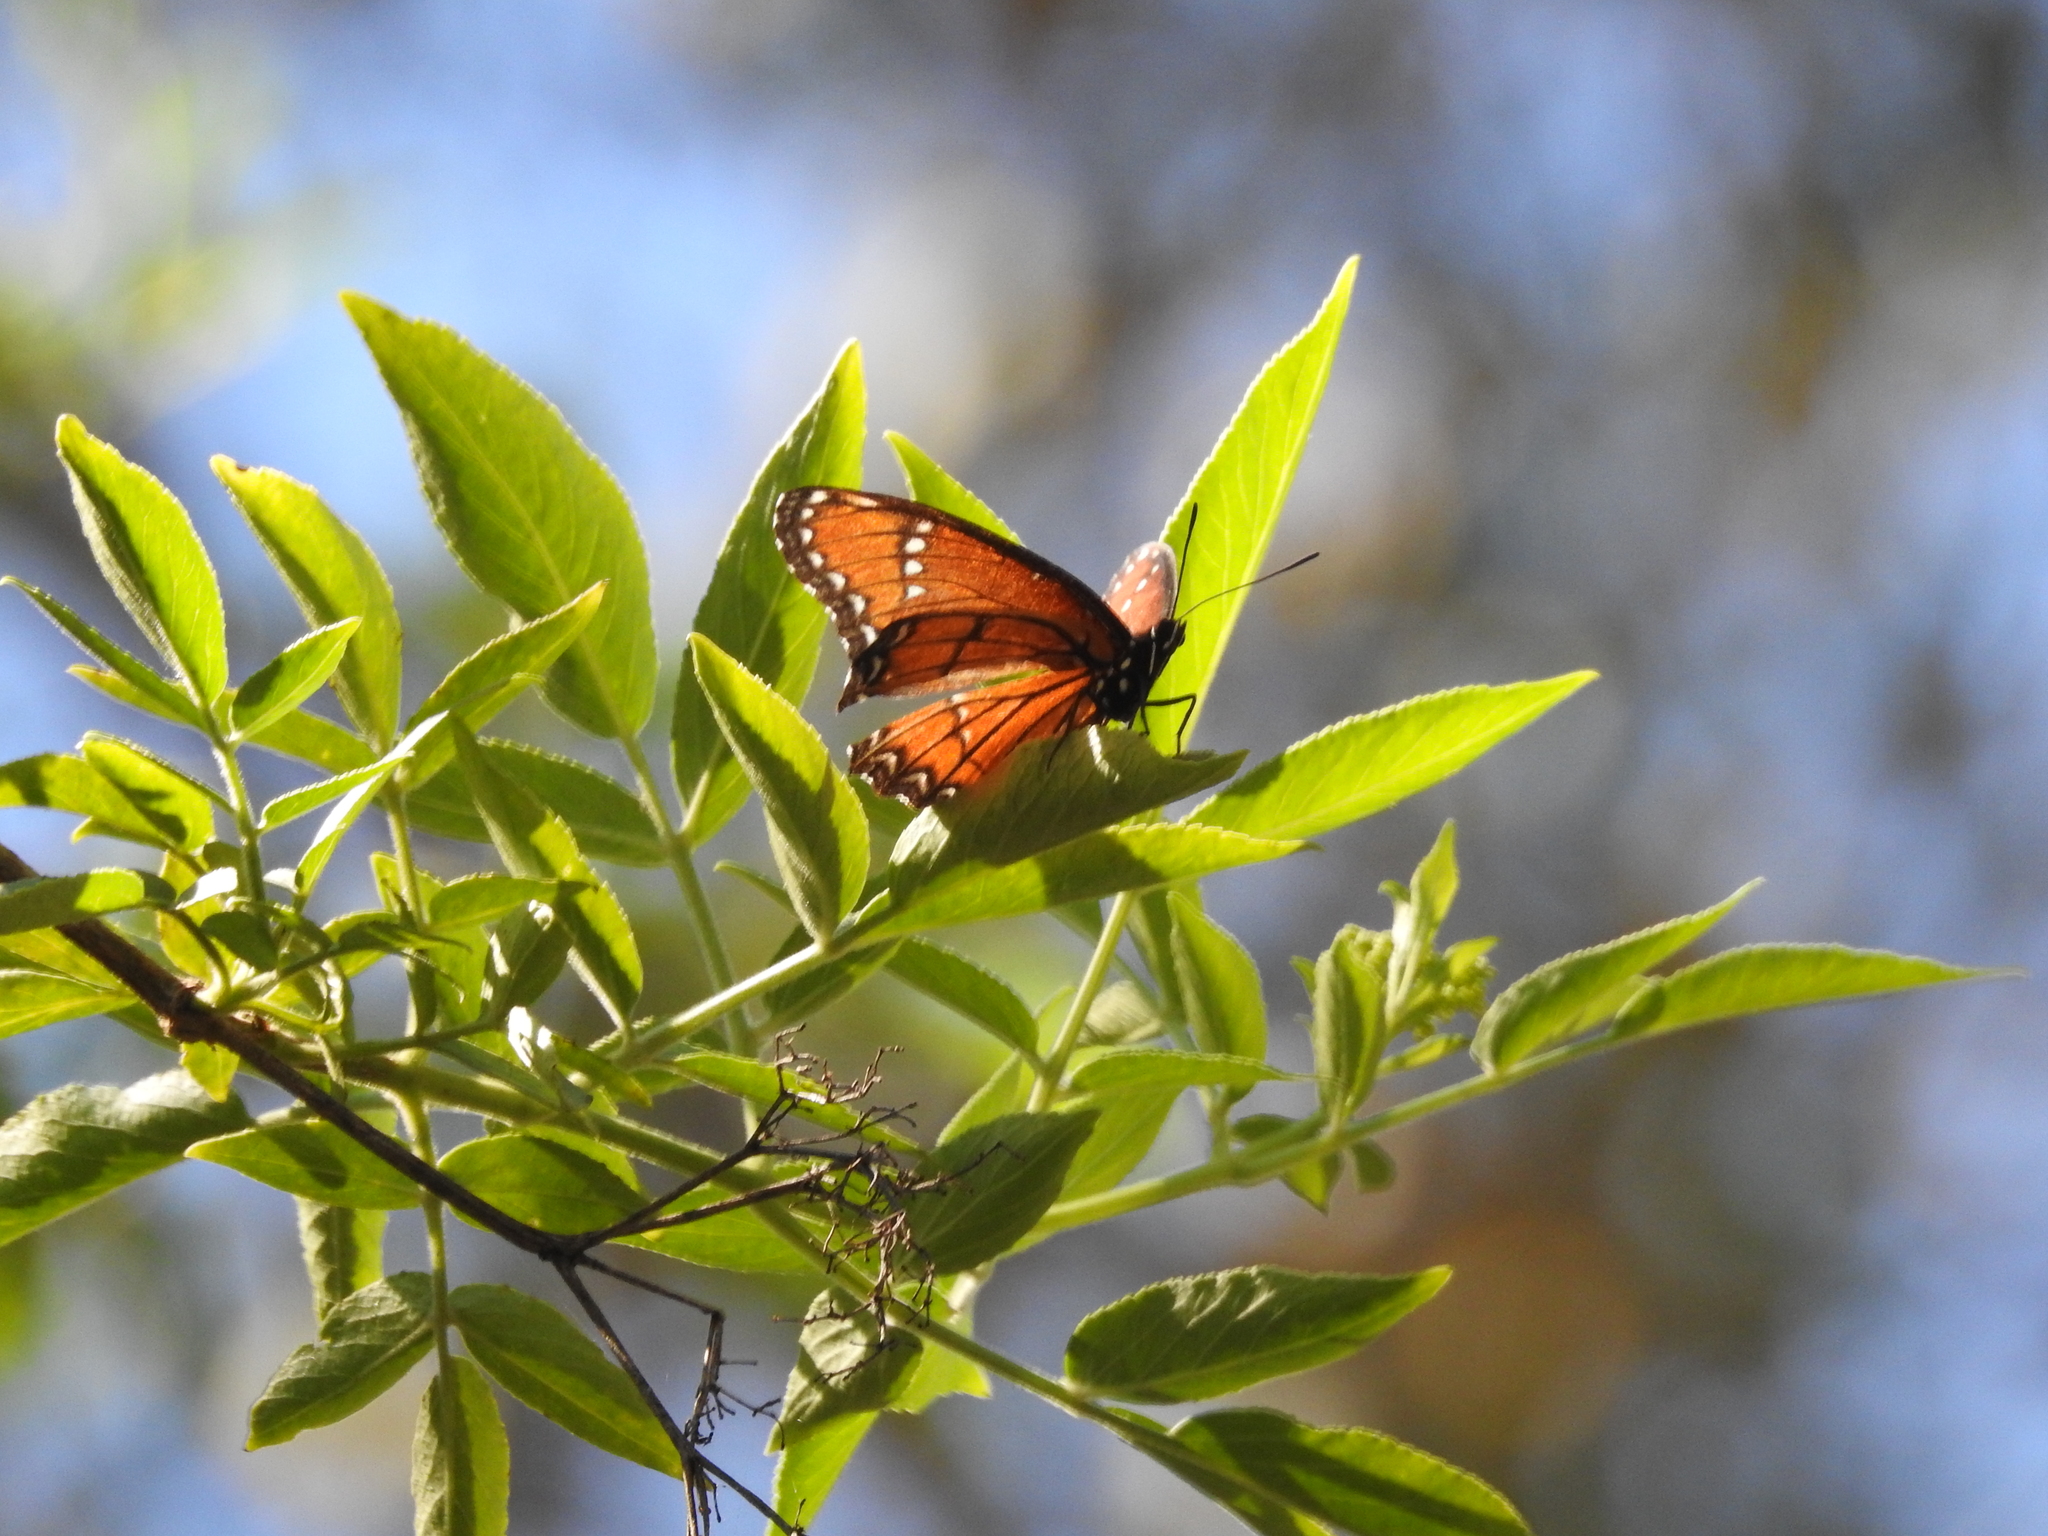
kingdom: Animalia
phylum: Arthropoda
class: Insecta
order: Lepidoptera
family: Nymphalidae
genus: Limenitis
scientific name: Limenitis archippus
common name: Viceroy
